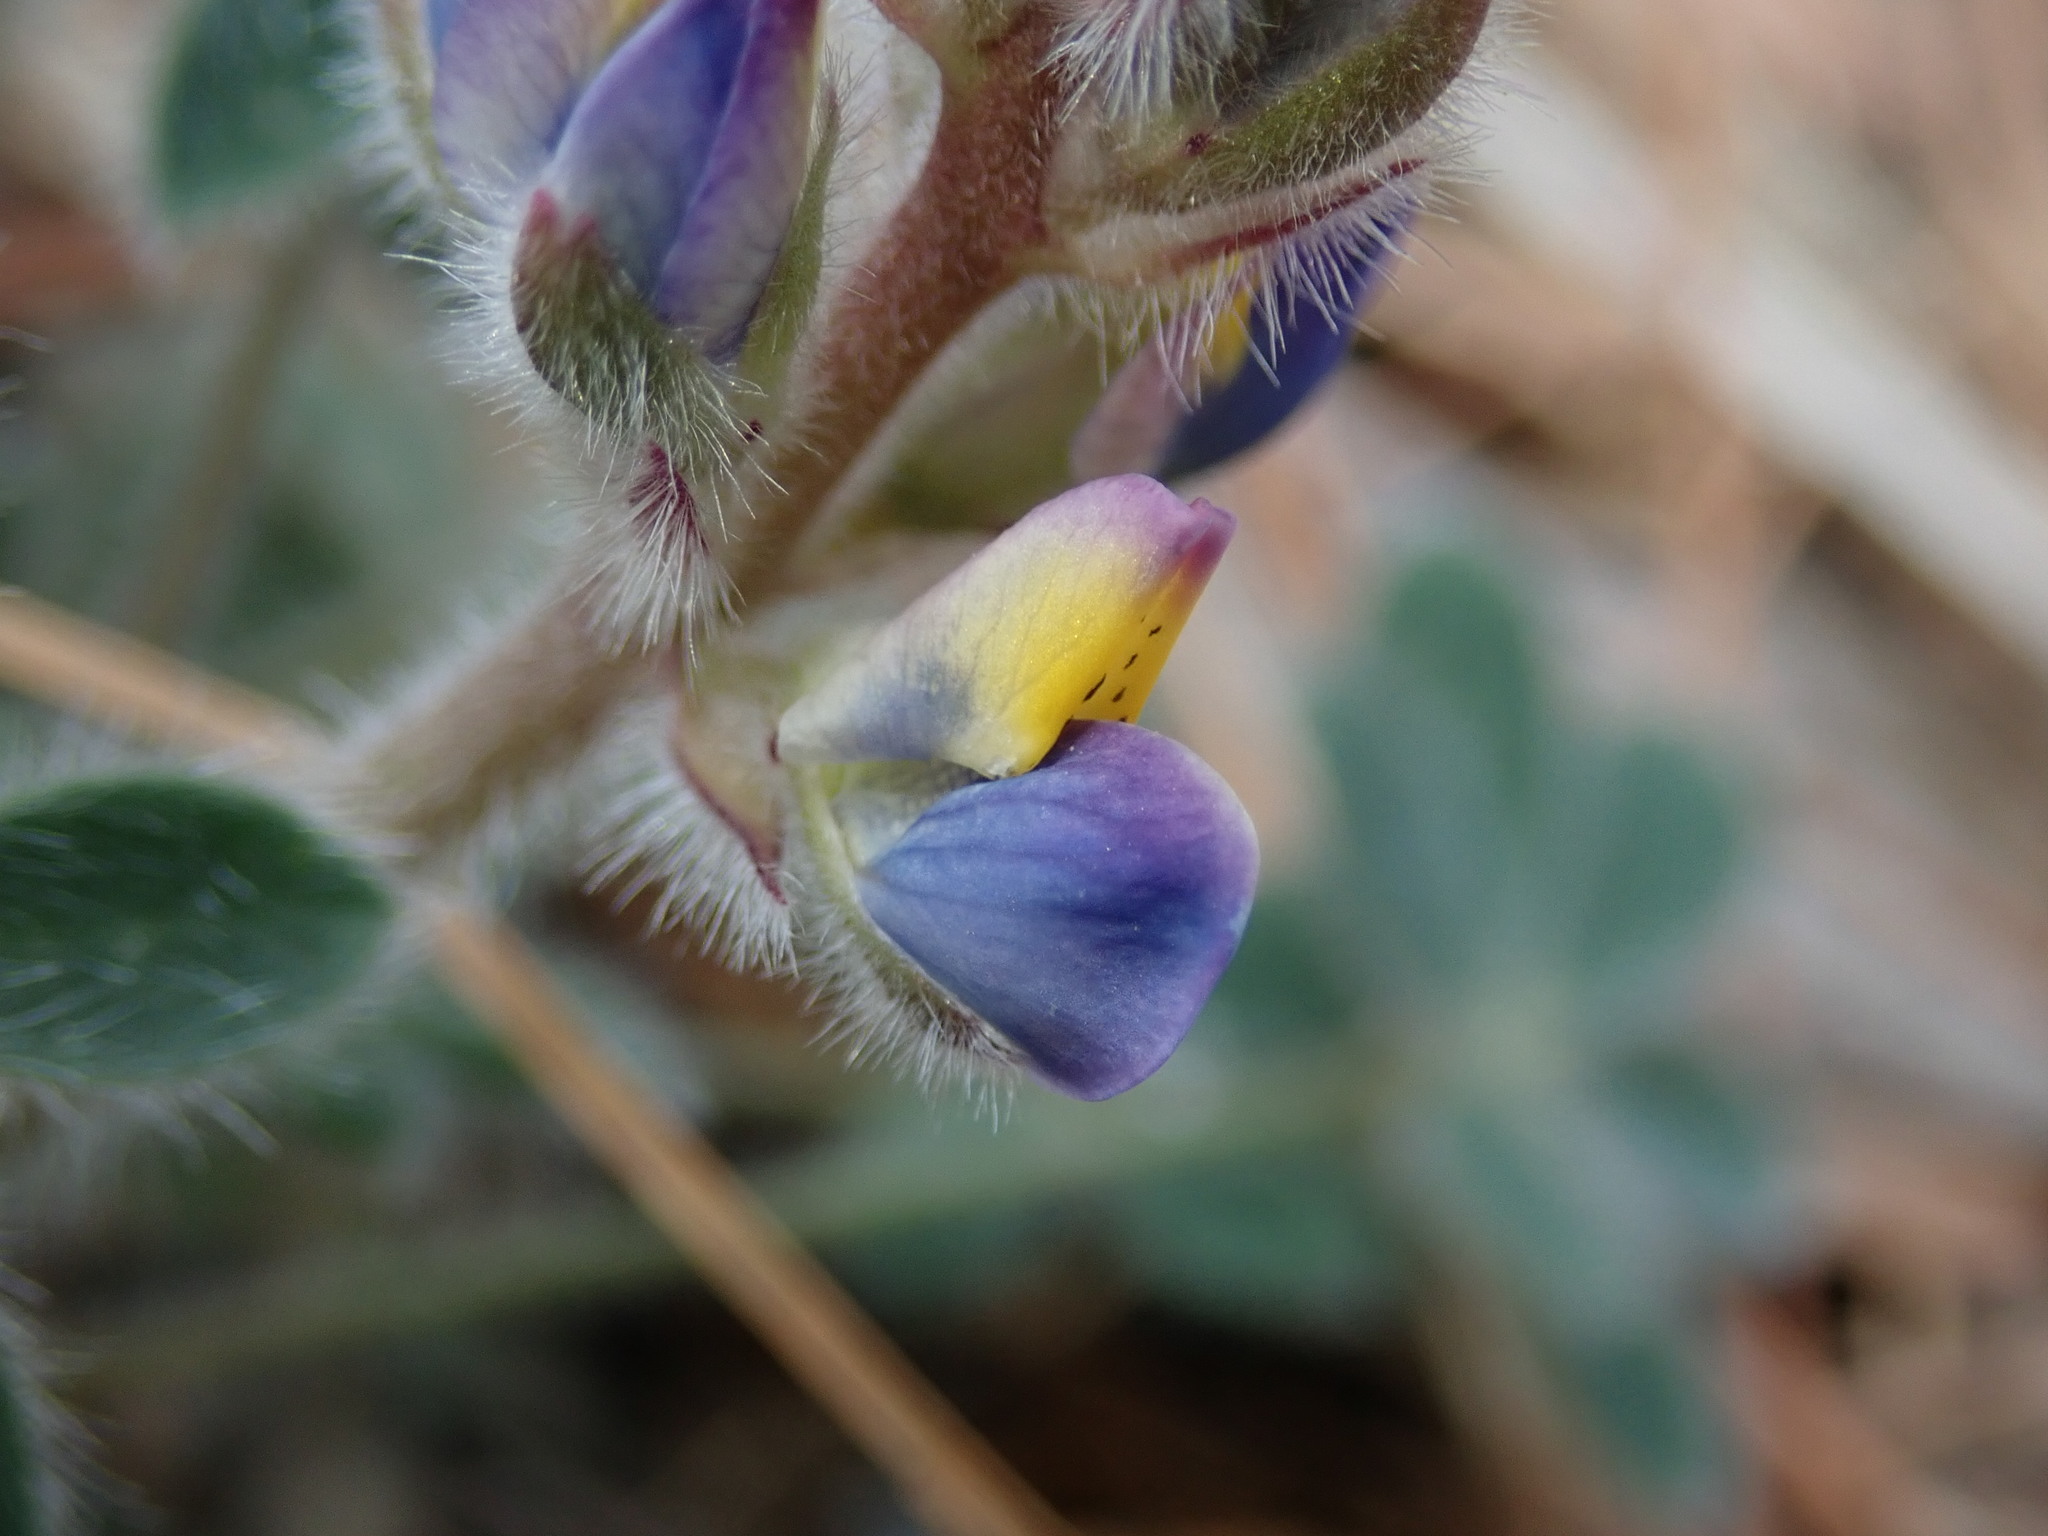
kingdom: Plantae
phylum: Tracheophyta
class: Magnoliopsida
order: Fabales
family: Fabaceae
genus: Lupinus
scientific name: Lupinus huachucanus
